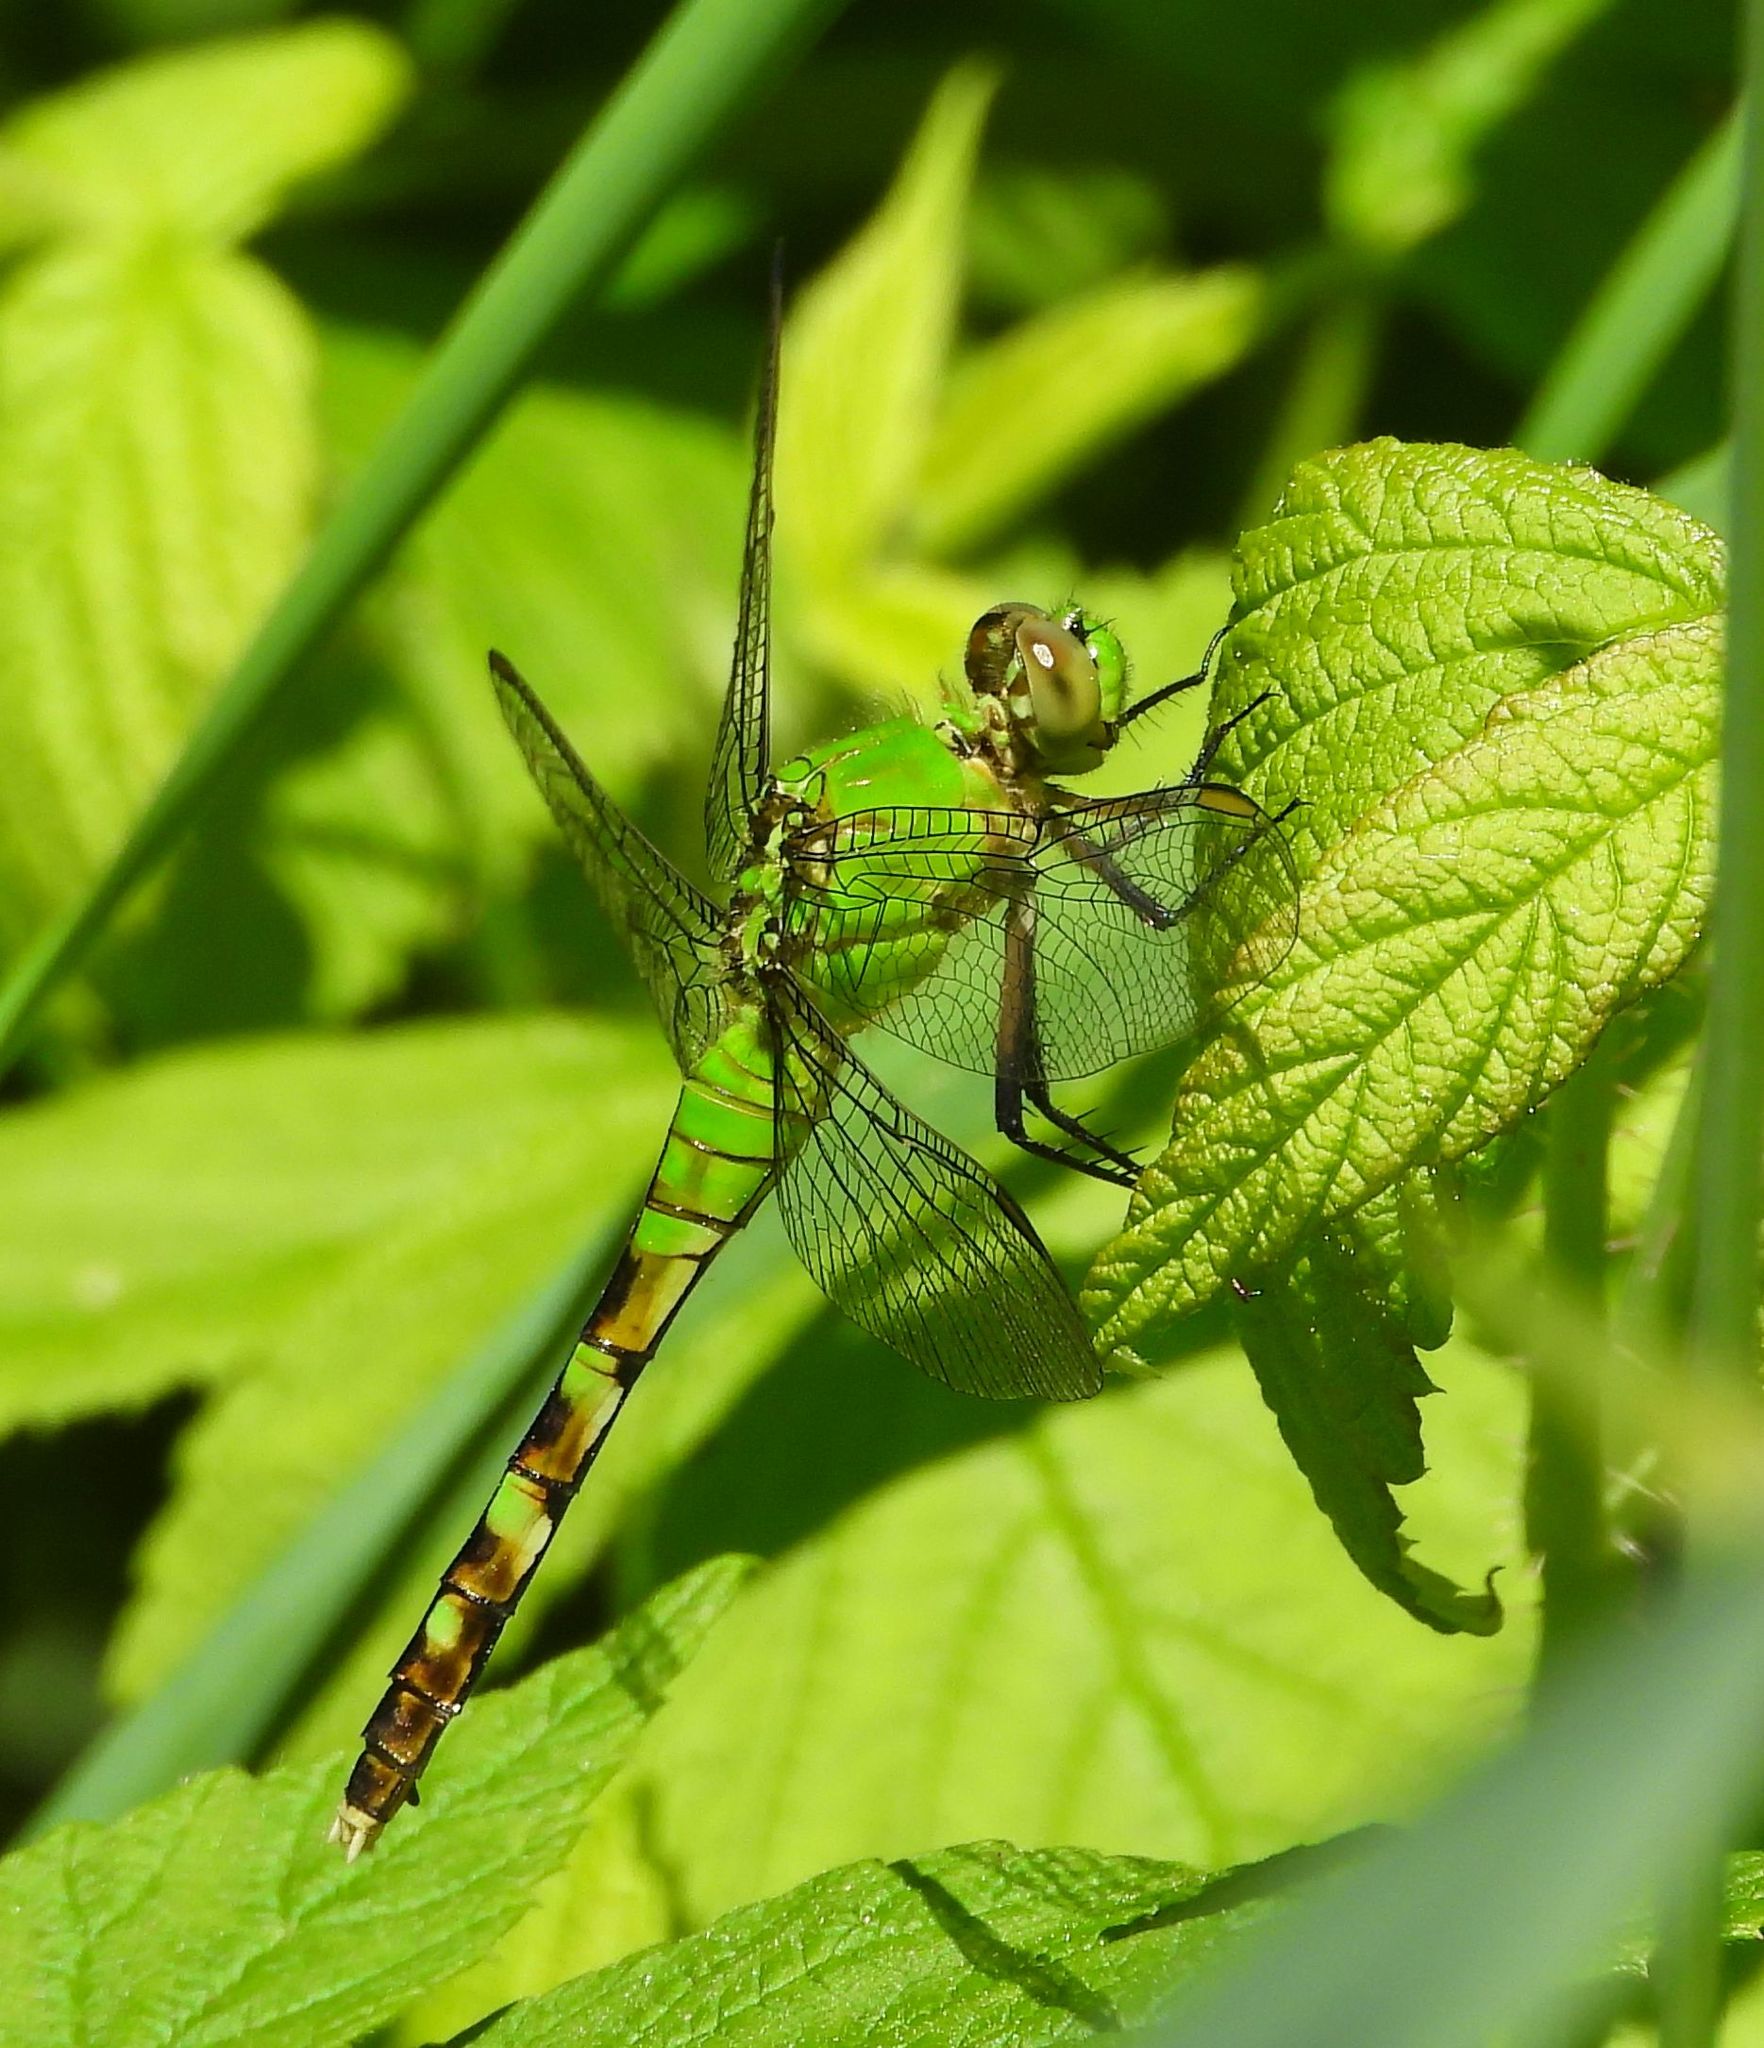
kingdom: Animalia
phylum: Arthropoda
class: Insecta
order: Odonata
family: Libellulidae
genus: Erythemis
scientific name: Erythemis simplicicollis
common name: Eastern pondhawk
